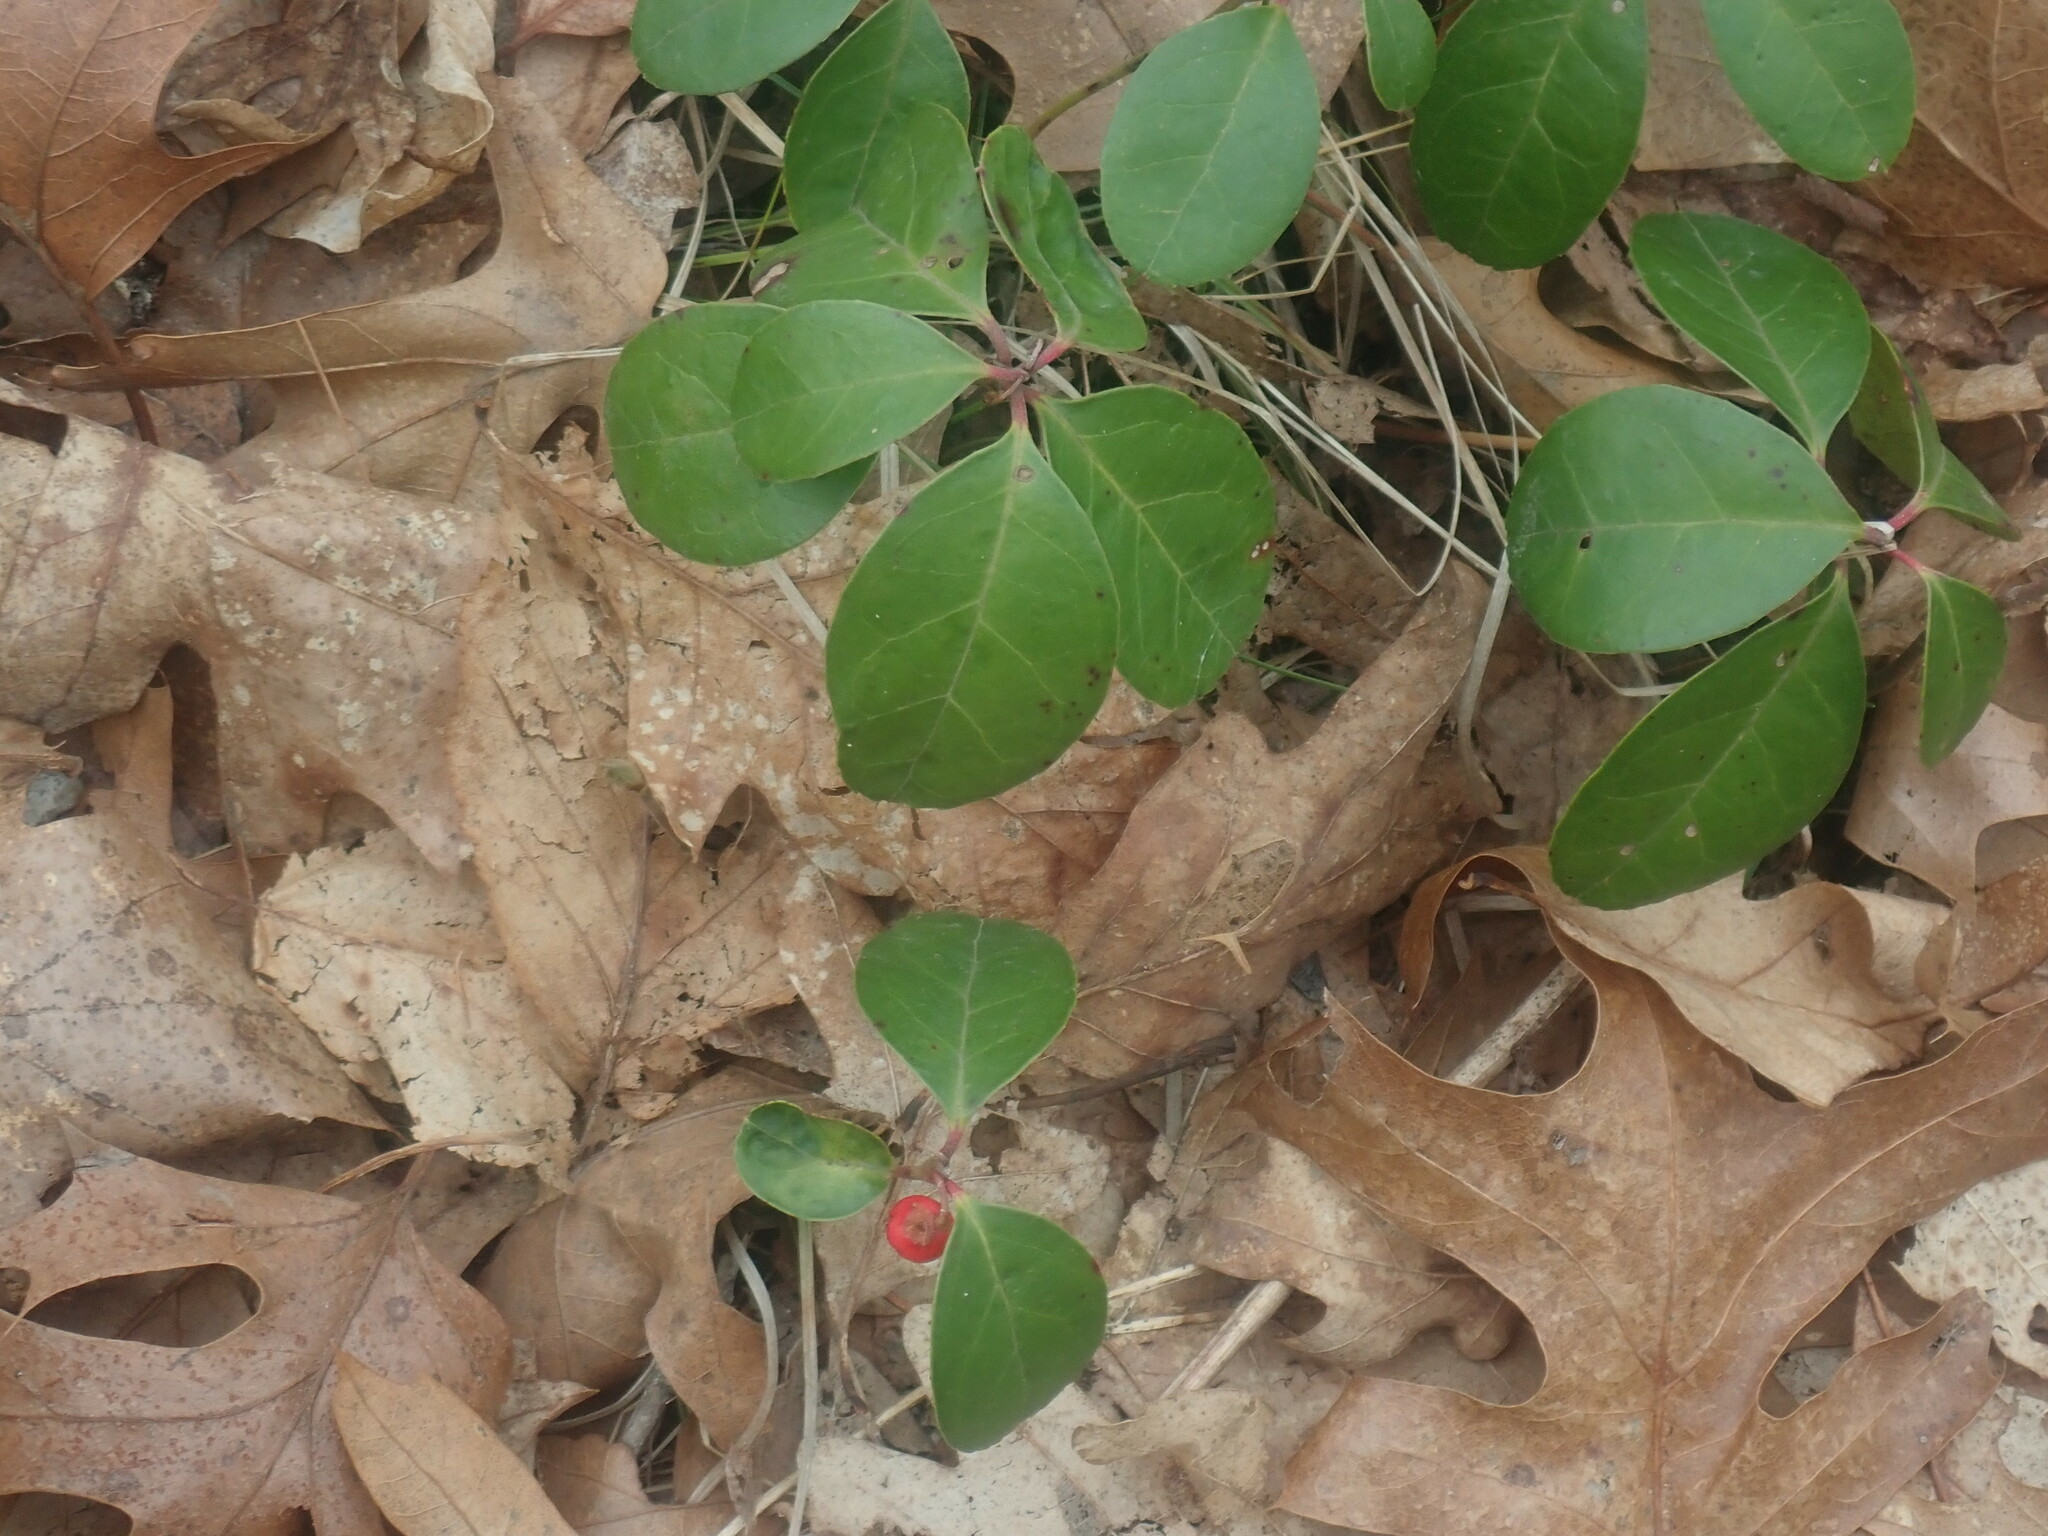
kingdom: Plantae
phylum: Tracheophyta
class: Magnoliopsida
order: Ericales
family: Ericaceae
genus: Gaultheria
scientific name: Gaultheria procumbens
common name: Checkerberry
